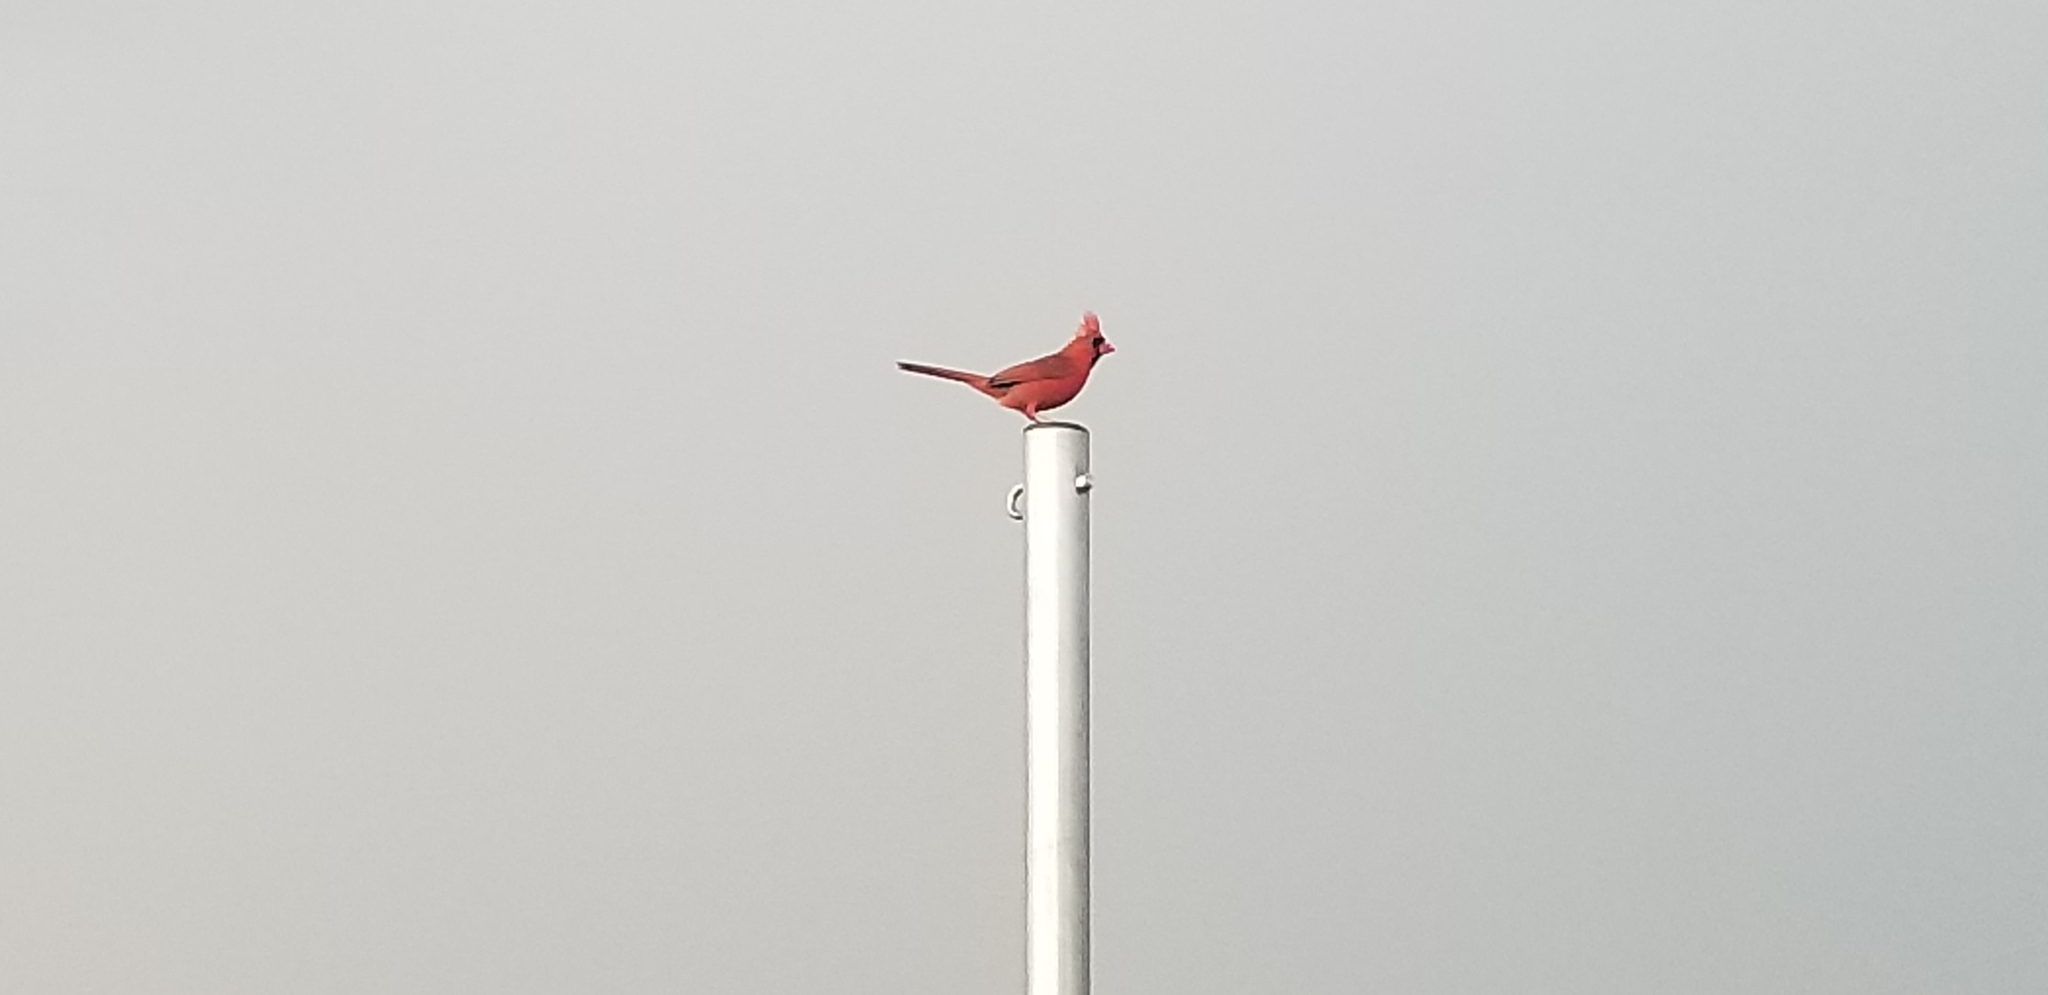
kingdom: Animalia
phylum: Chordata
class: Aves
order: Passeriformes
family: Cardinalidae
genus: Cardinalis
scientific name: Cardinalis cardinalis
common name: Northern cardinal
